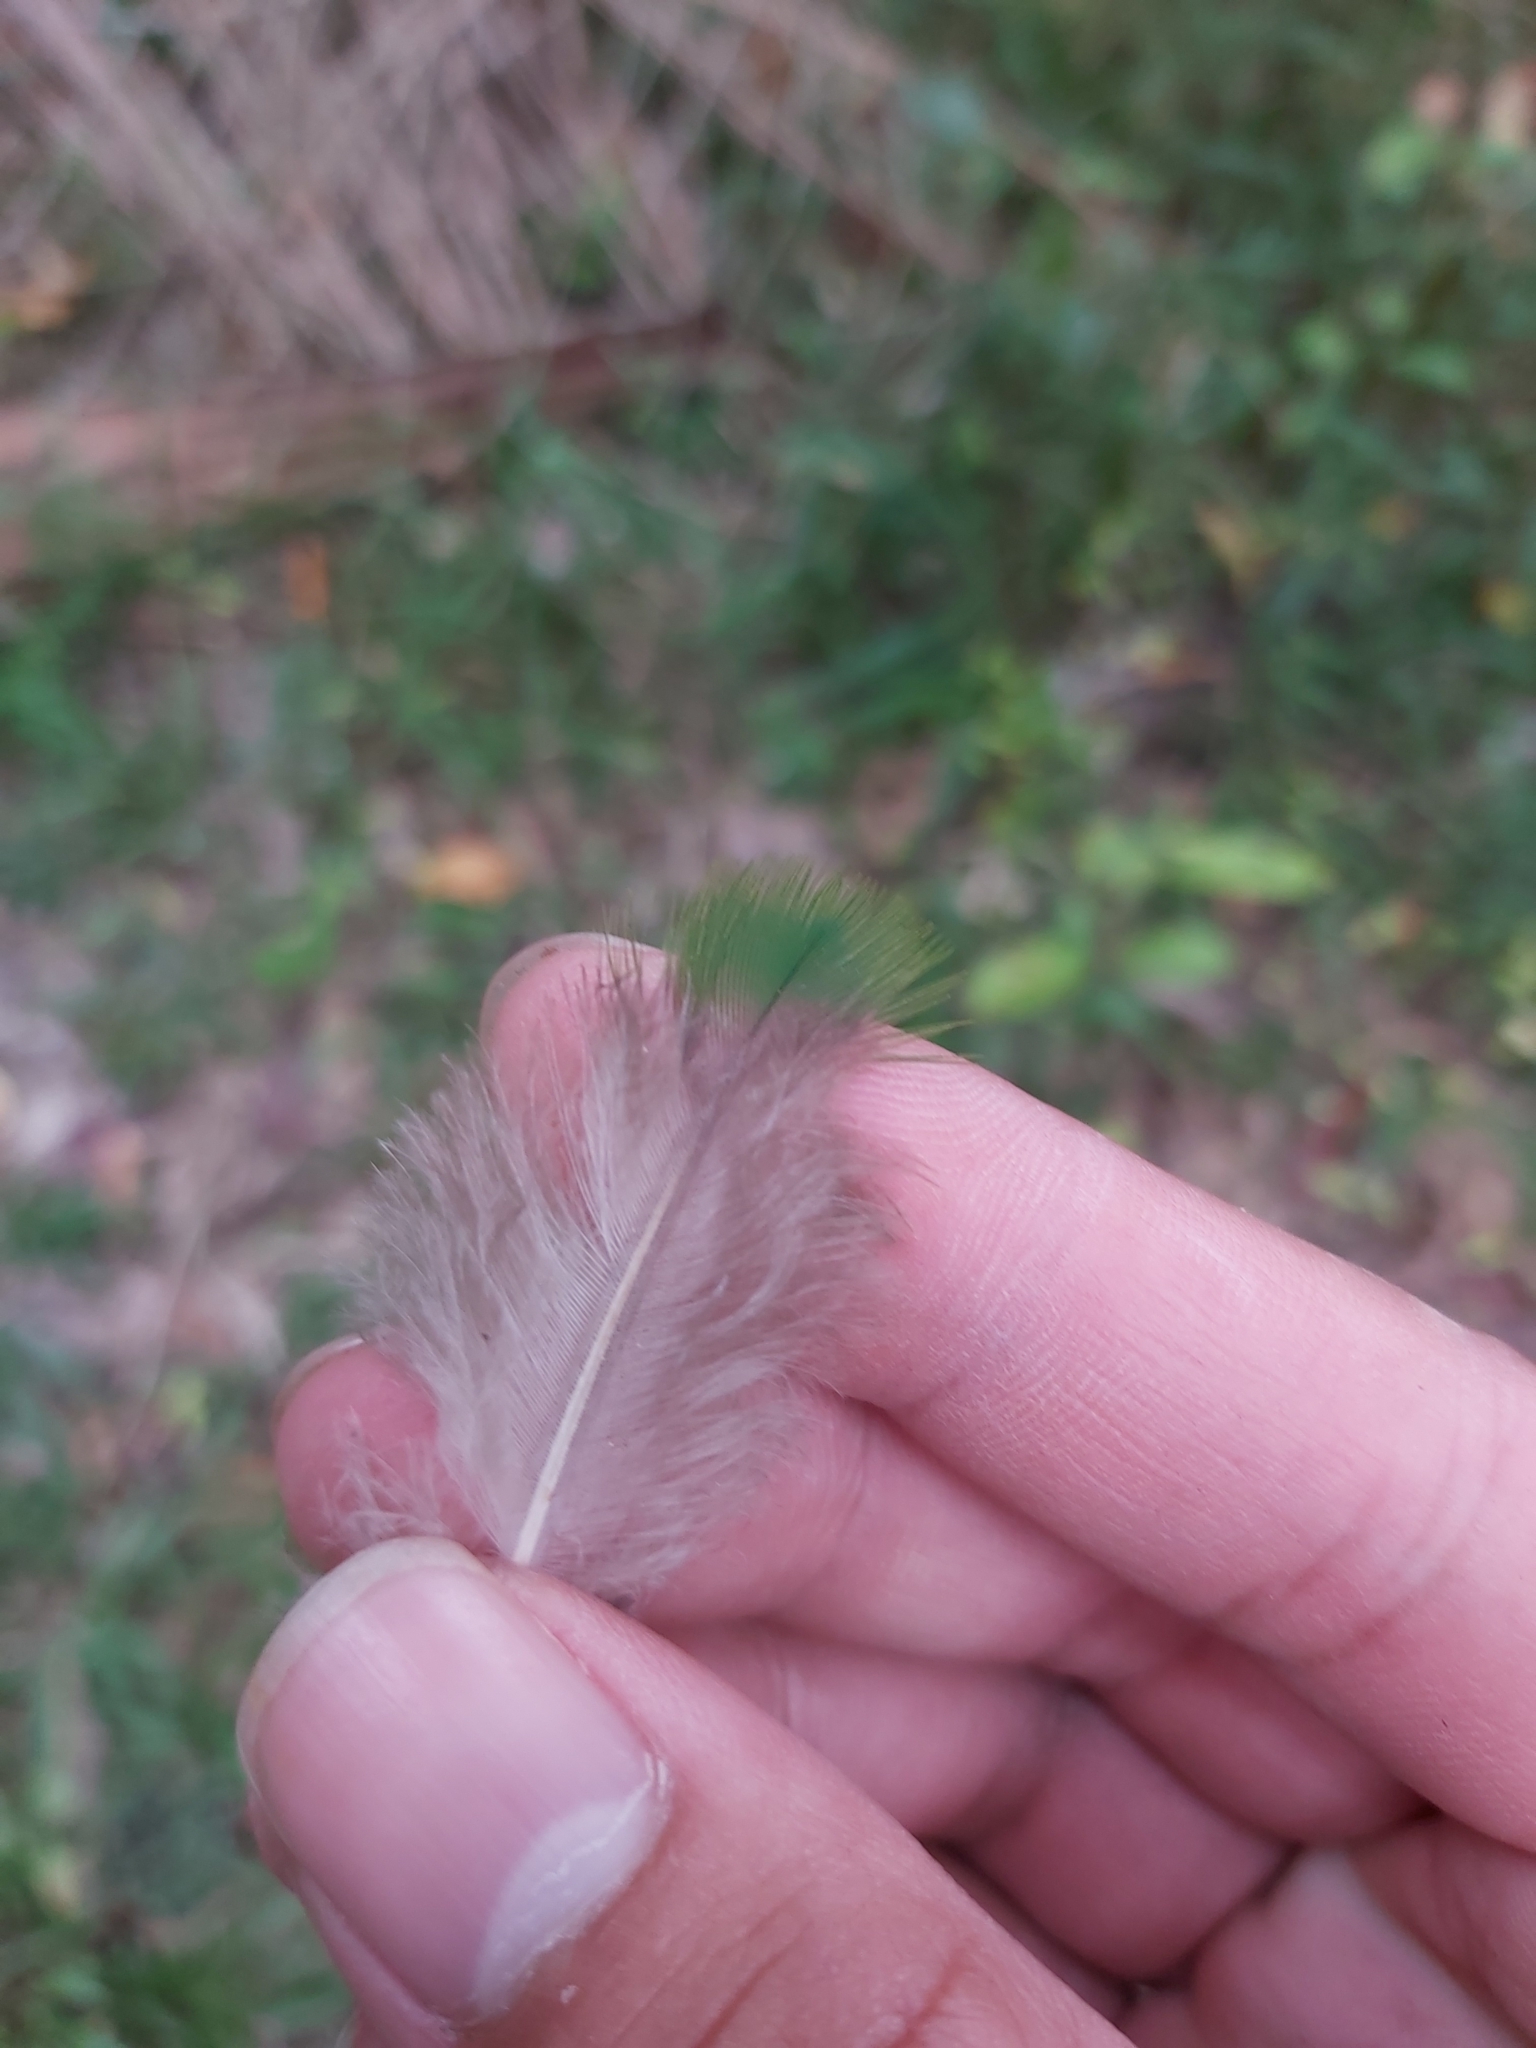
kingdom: Animalia
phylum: Chordata
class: Aves
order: Columbiformes
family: Columbidae
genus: Ptilinopus
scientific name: Ptilinopus magnificus
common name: Wompoo fruit dove
